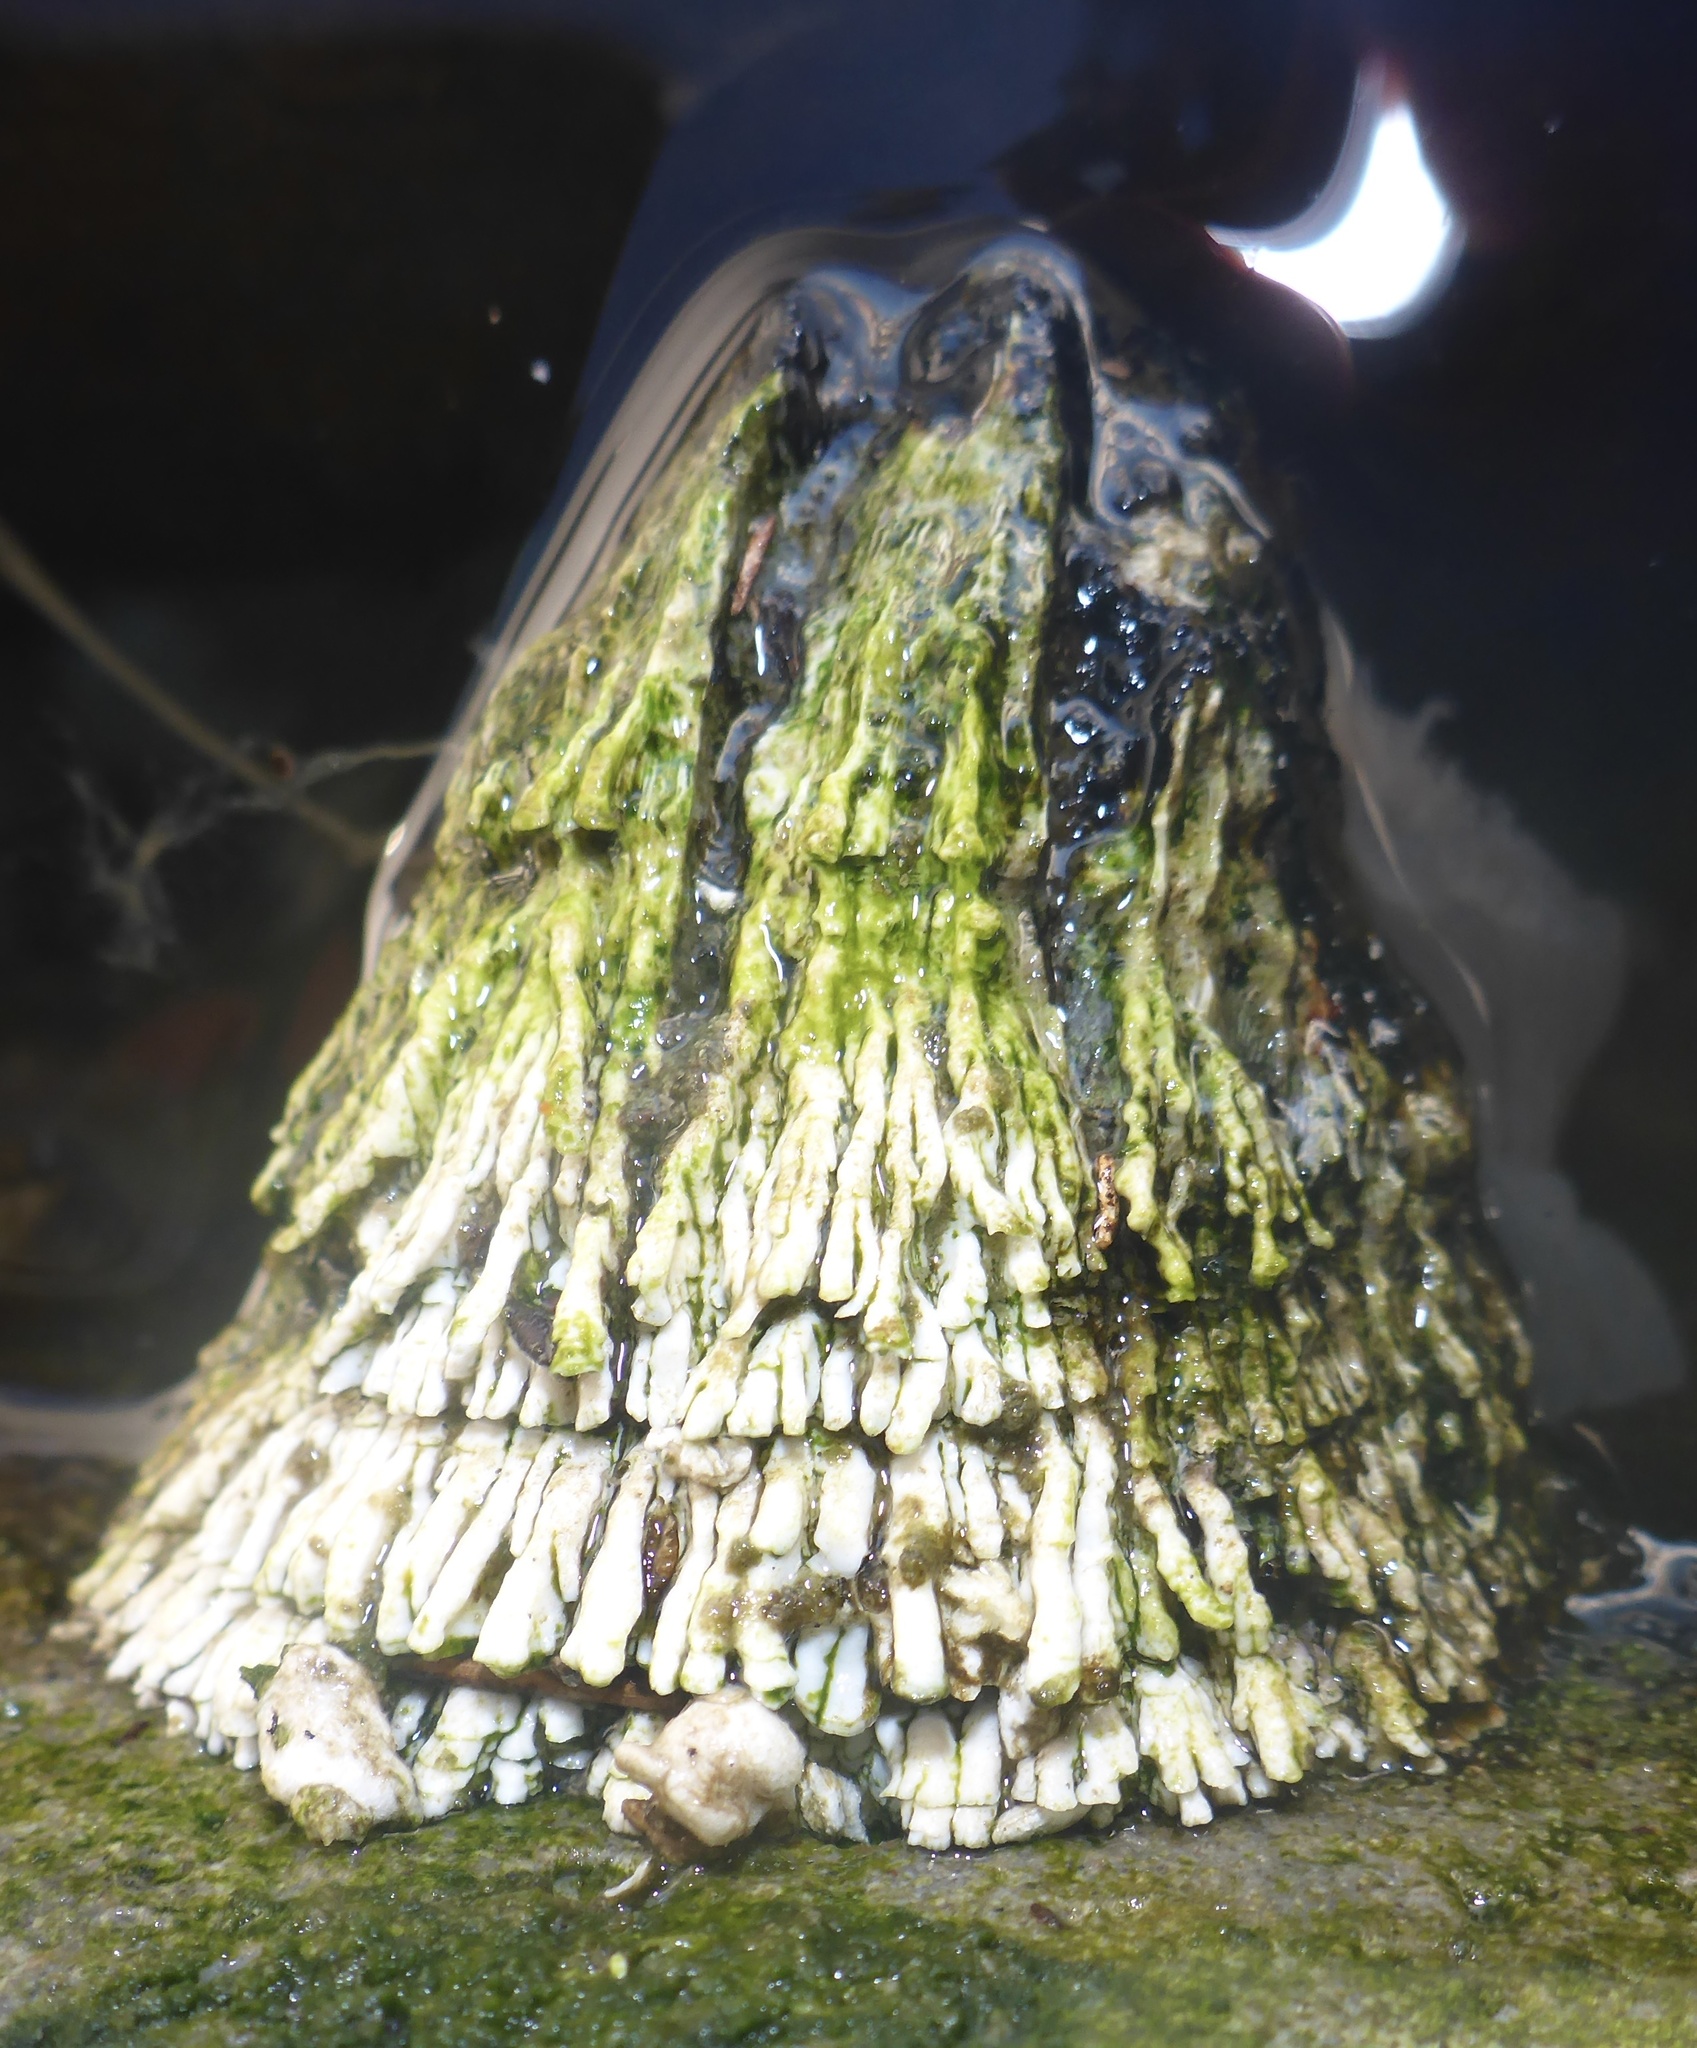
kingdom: Animalia
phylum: Arthropoda
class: Maxillopoda
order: Sessilia
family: Archaeobalanidae
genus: Semibalanus
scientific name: Semibalanus cariosus
